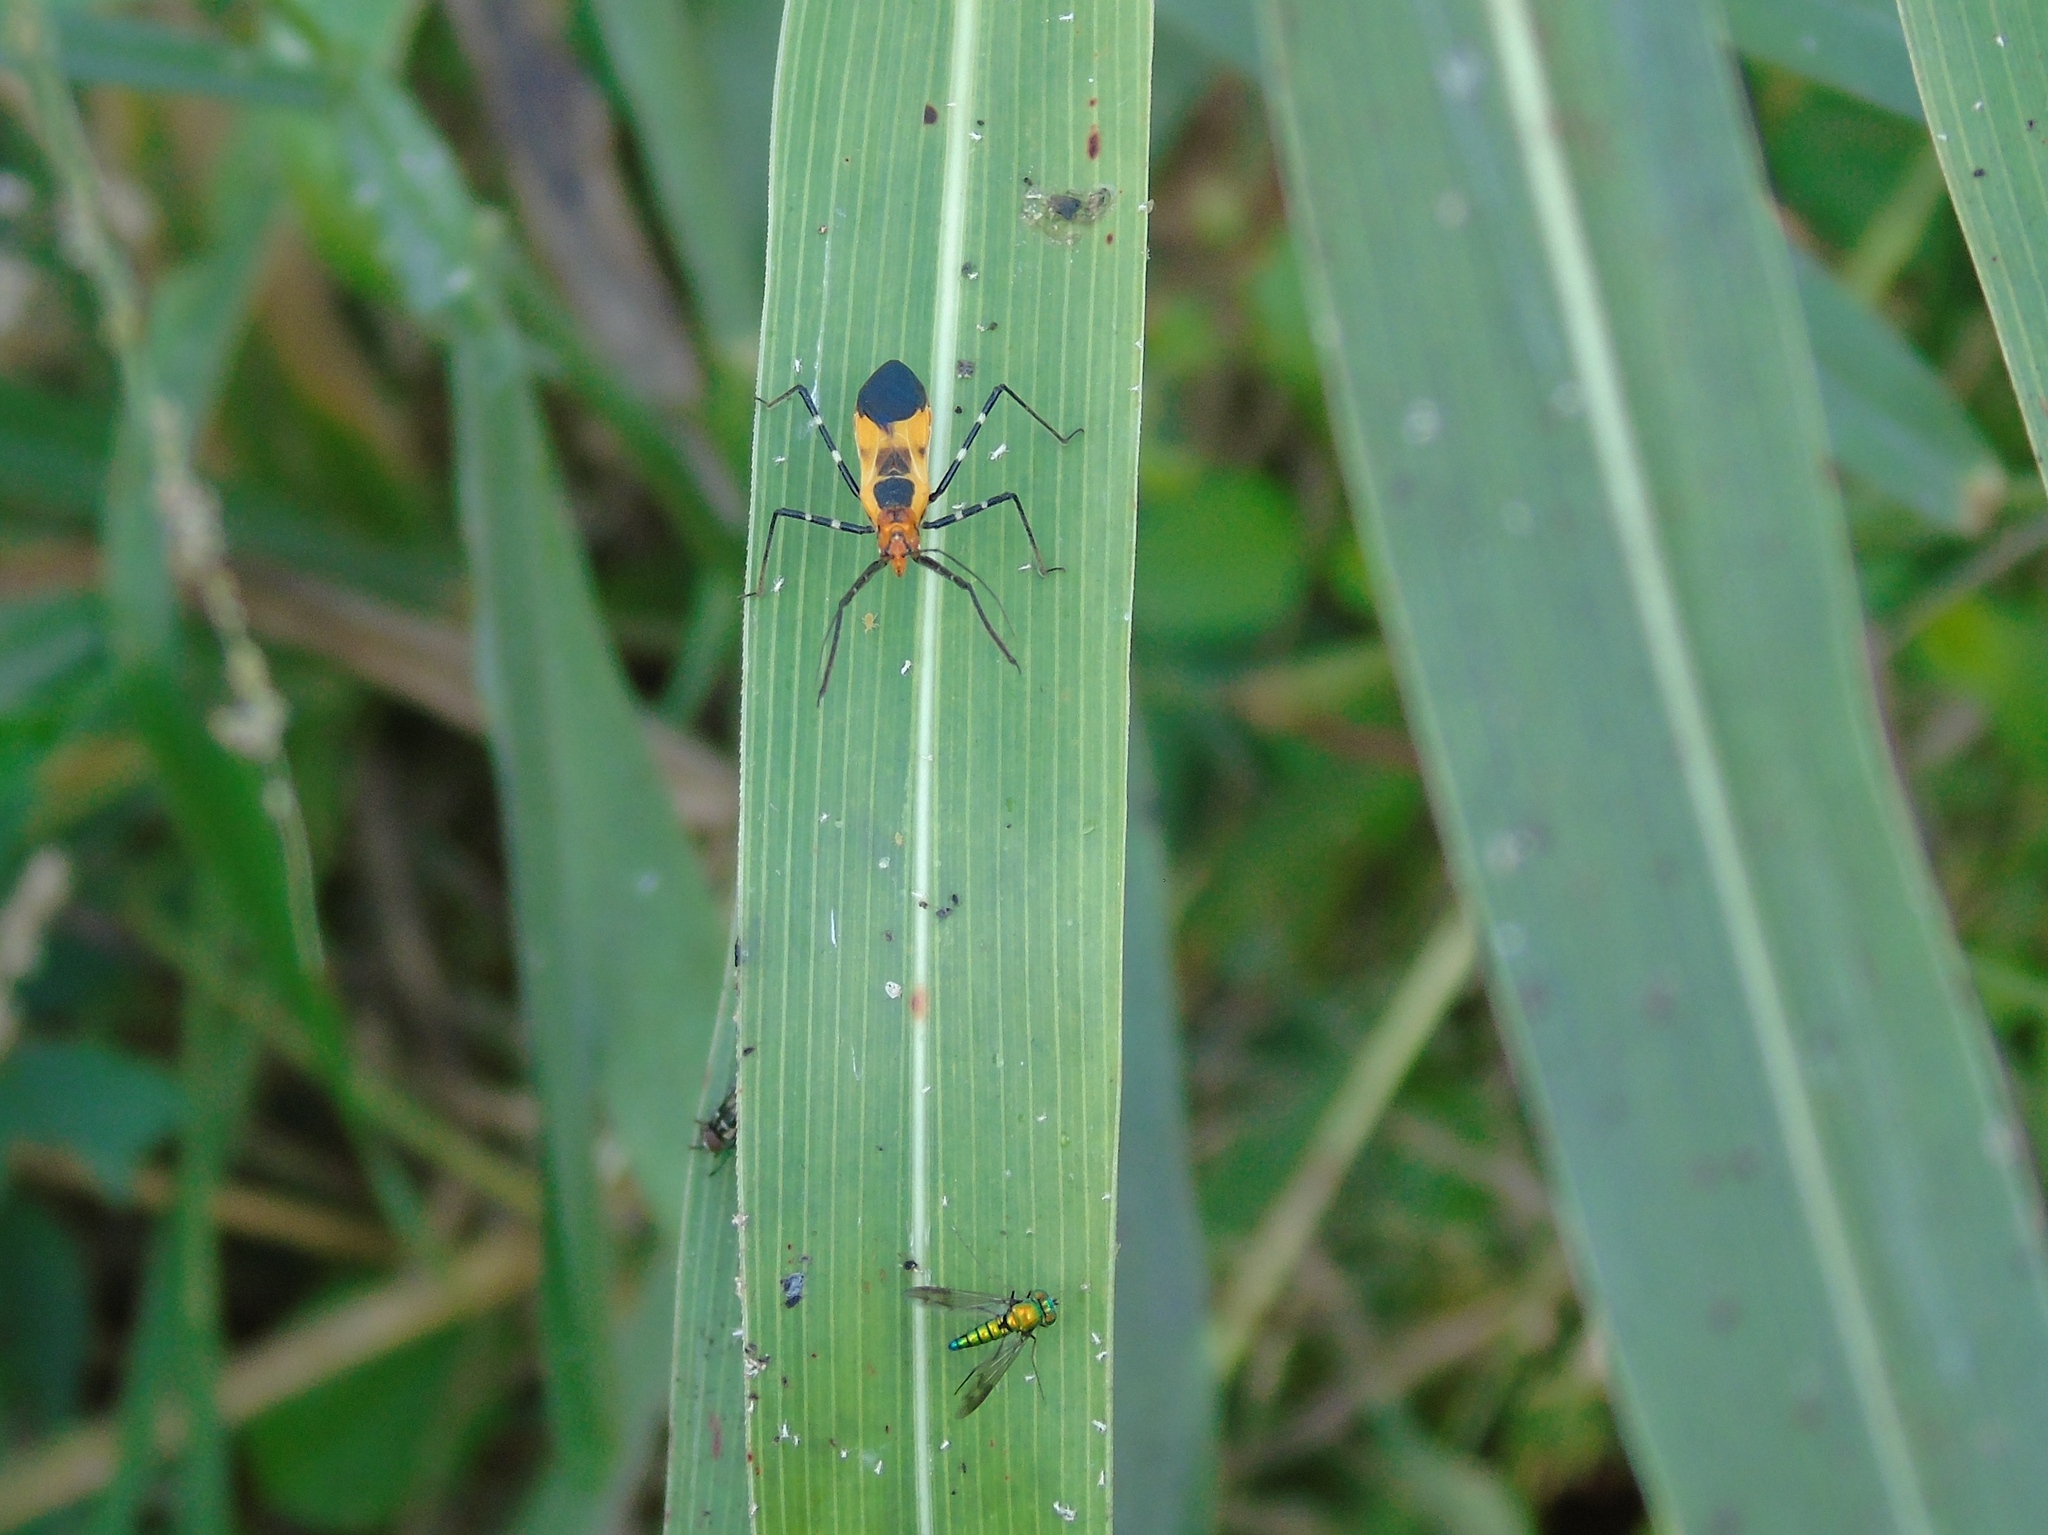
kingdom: Animalia
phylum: Arthropoda
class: Insecta
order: Hemiptera
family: Reduviidae
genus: Zelus
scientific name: Zelus longipes
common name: Milkweed assassin bug
